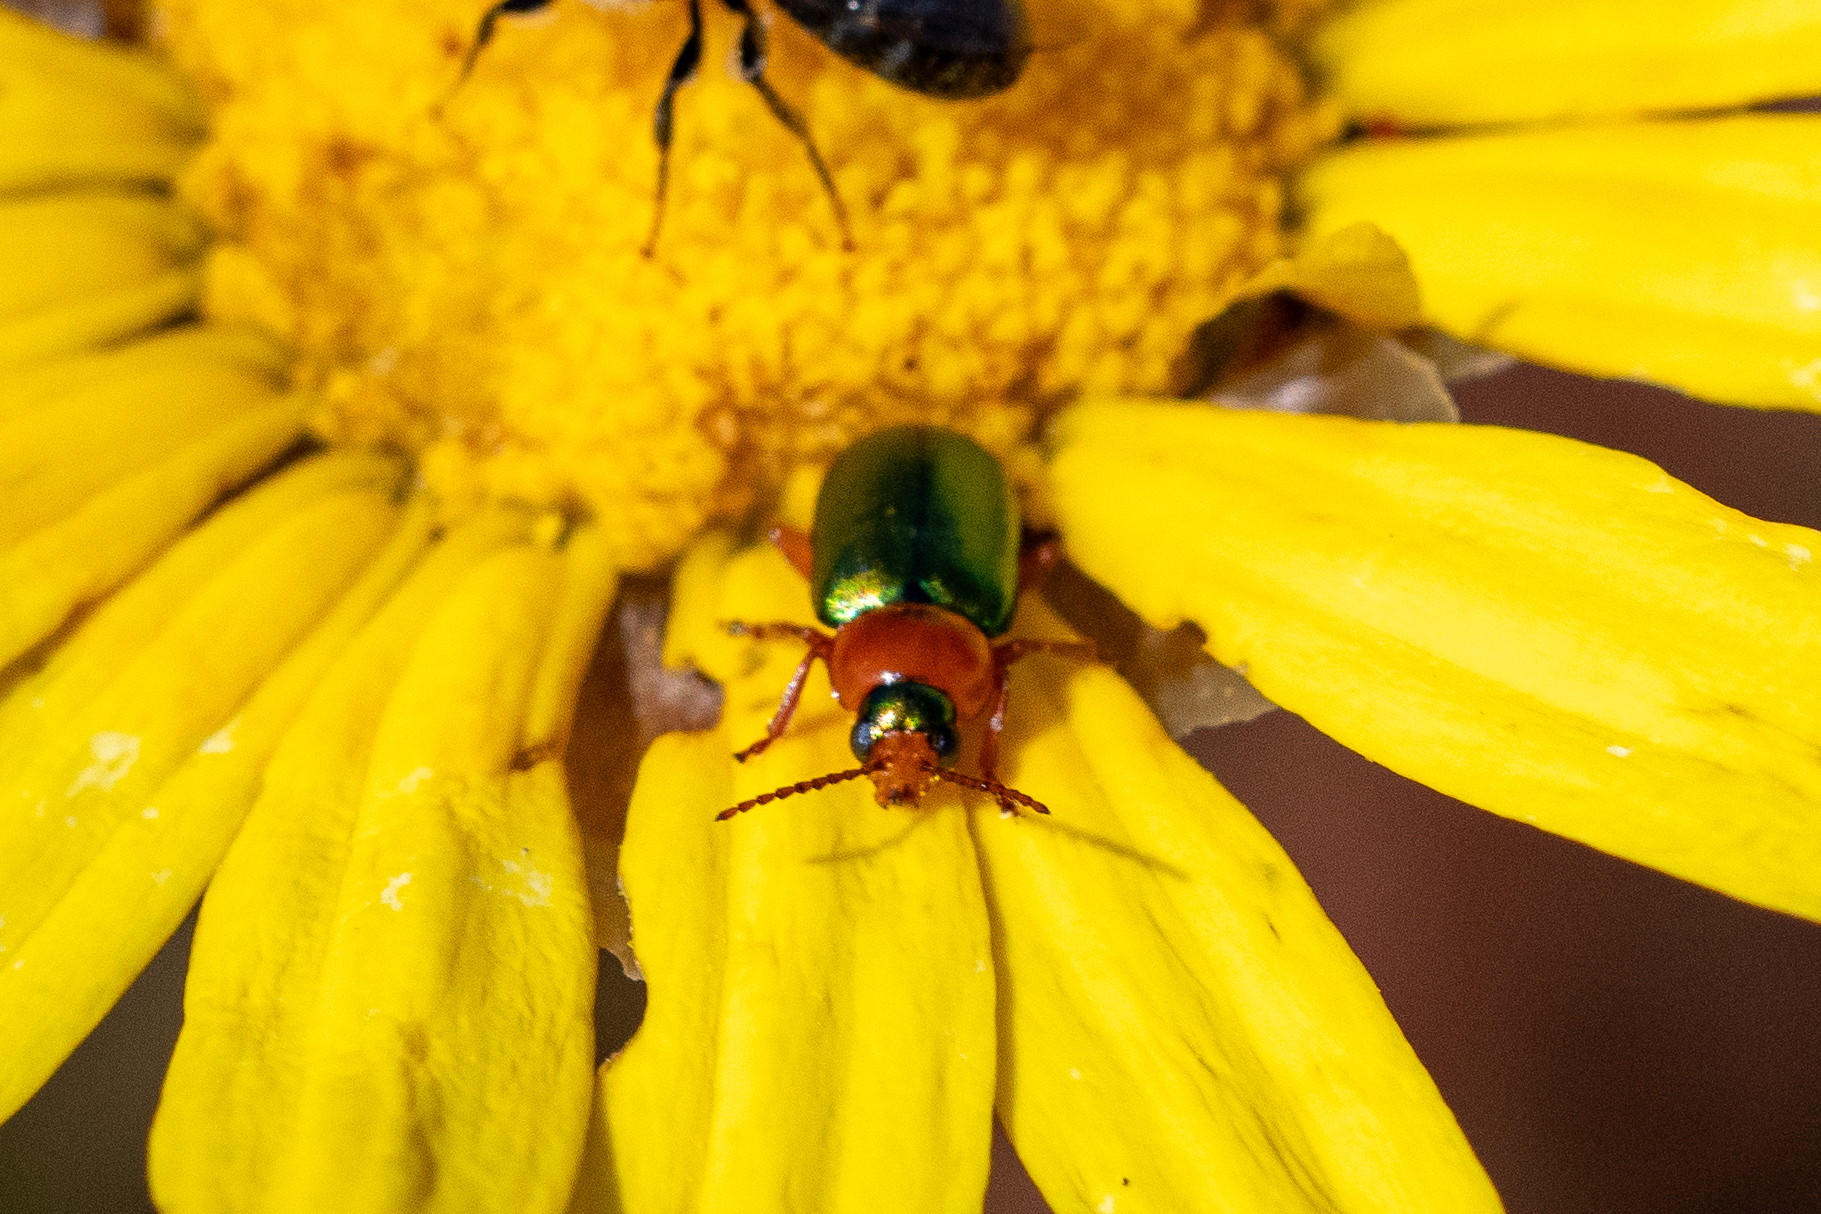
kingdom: Animalia
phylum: Arthropoda
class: Insecta
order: Coleoptera
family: Chrysomelidae
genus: Palaeophylia
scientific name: Palaeophylia
